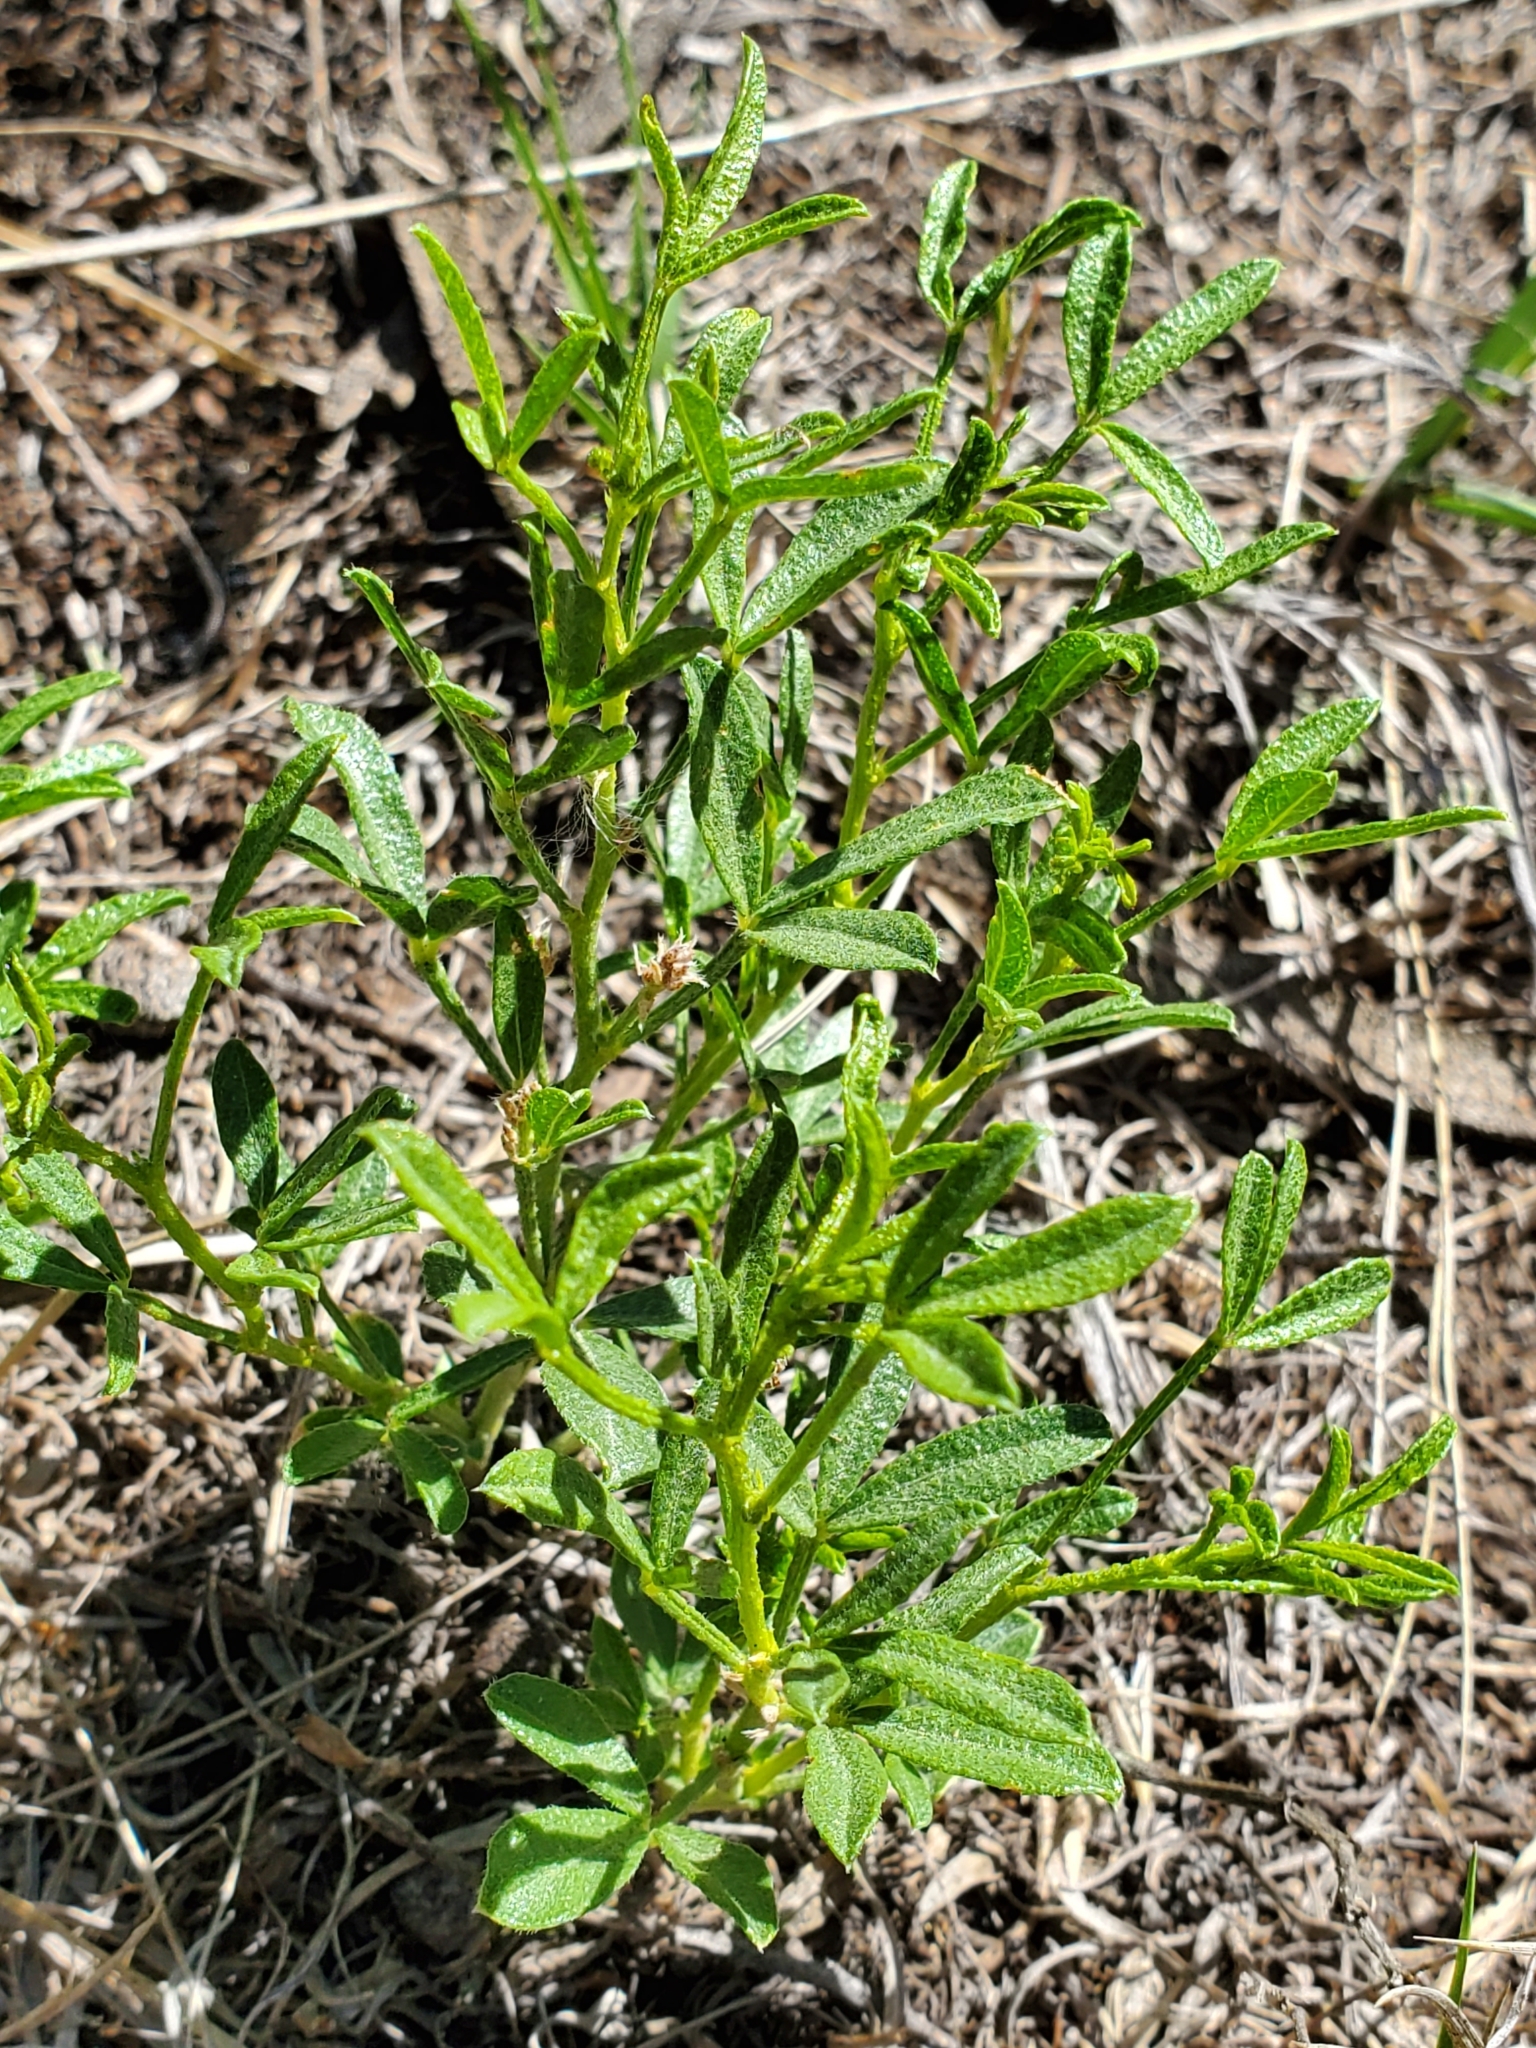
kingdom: Plantae
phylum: Tracheophyta
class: Magnoliopsida
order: Fabales
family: Fabaceae
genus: Ladeania
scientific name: Ladeania lanceolata
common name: Dune scurf-pea
